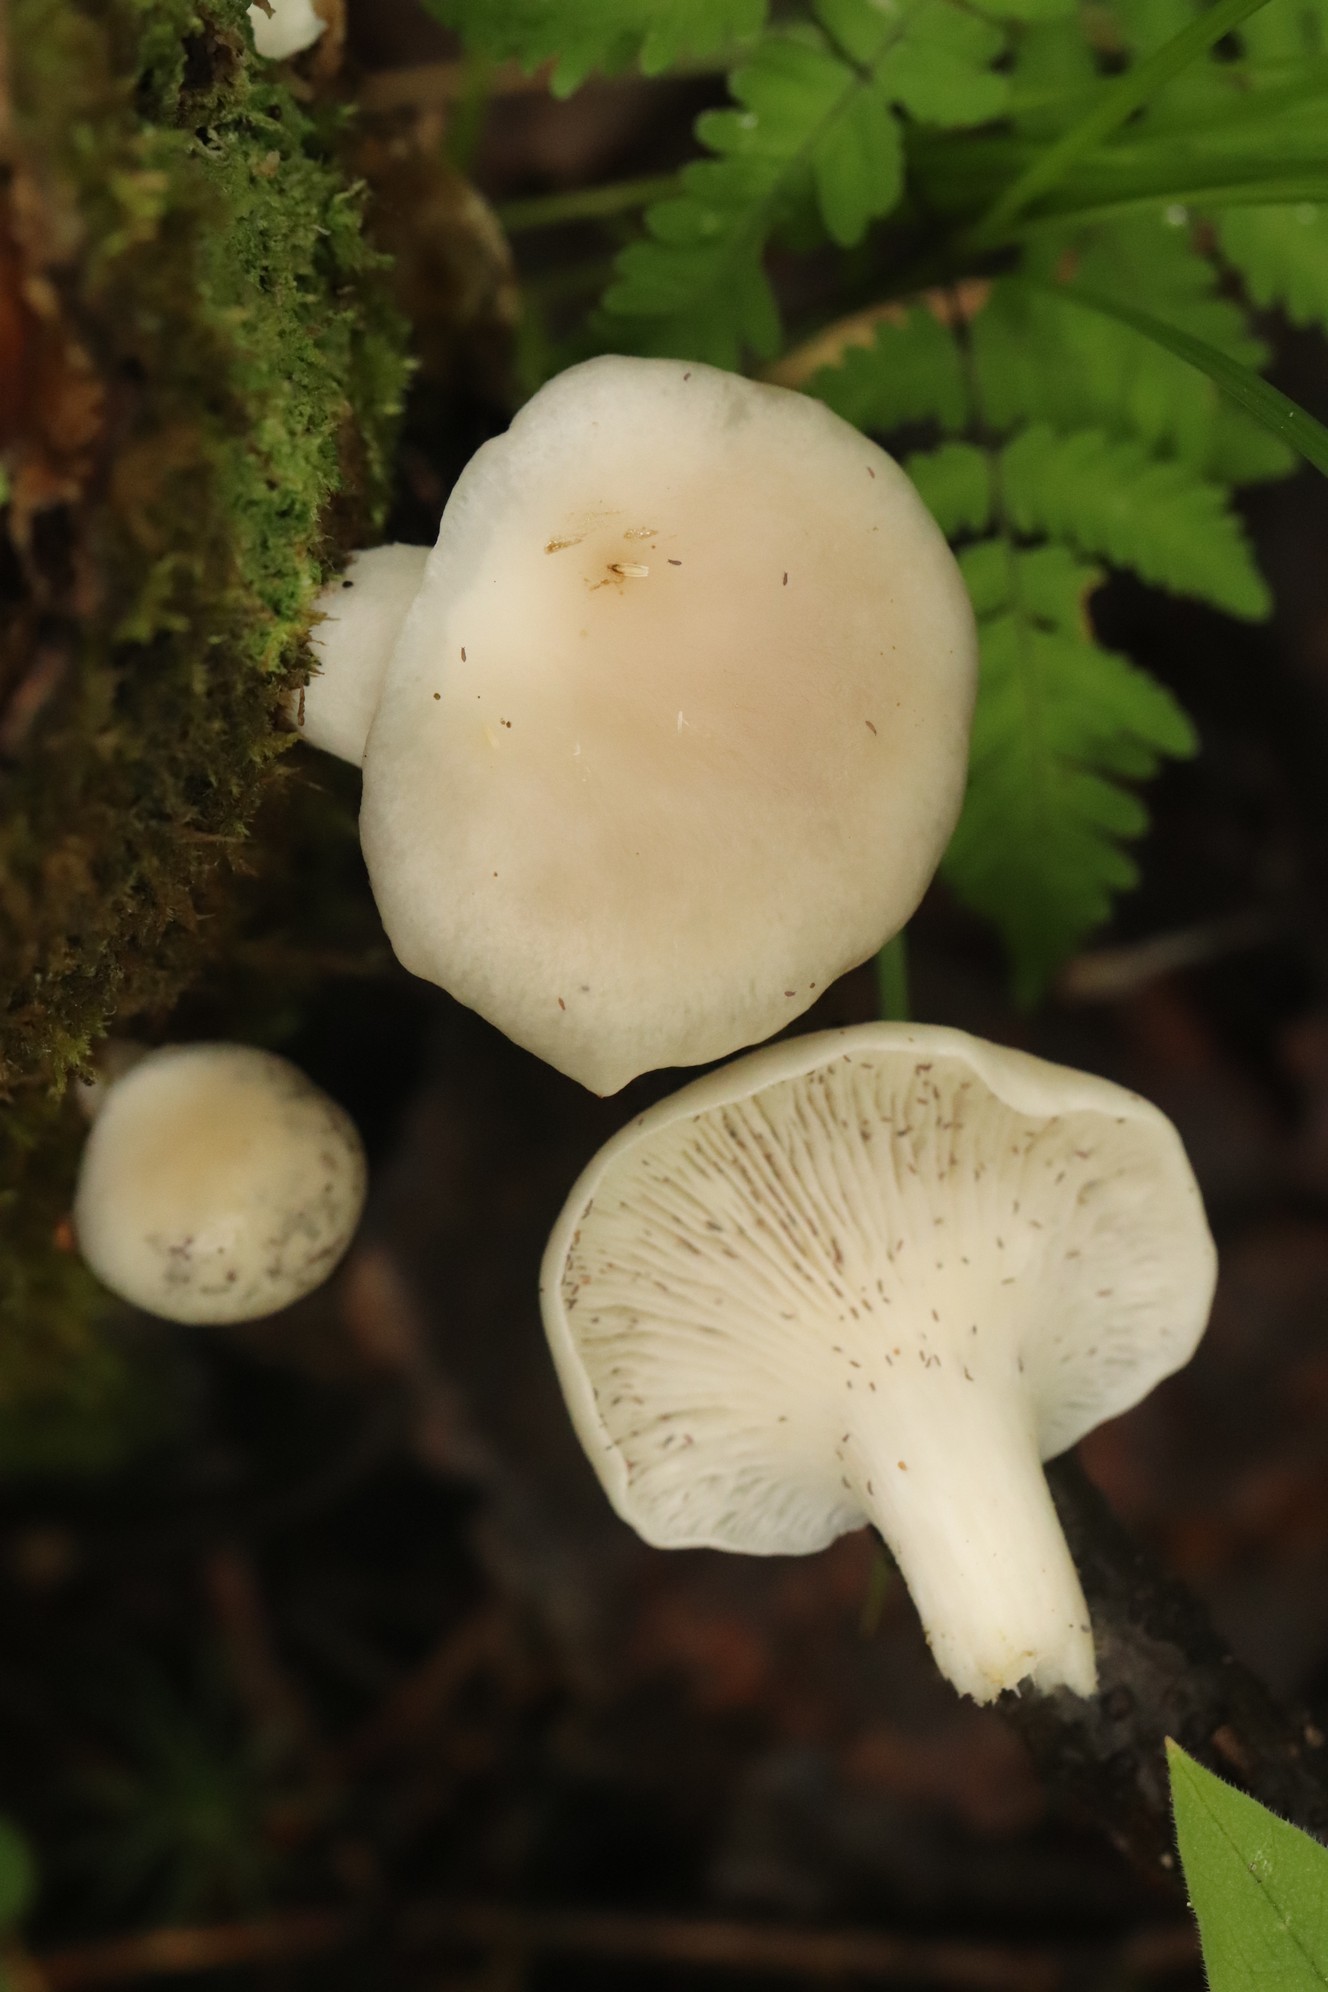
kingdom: Fungi
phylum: Basidiomycota
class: Agaricomycetes
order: Agaricales
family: Pleurotaceae
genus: Pleurotus
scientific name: Pleurotus pulmonarius
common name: Pale oyster
